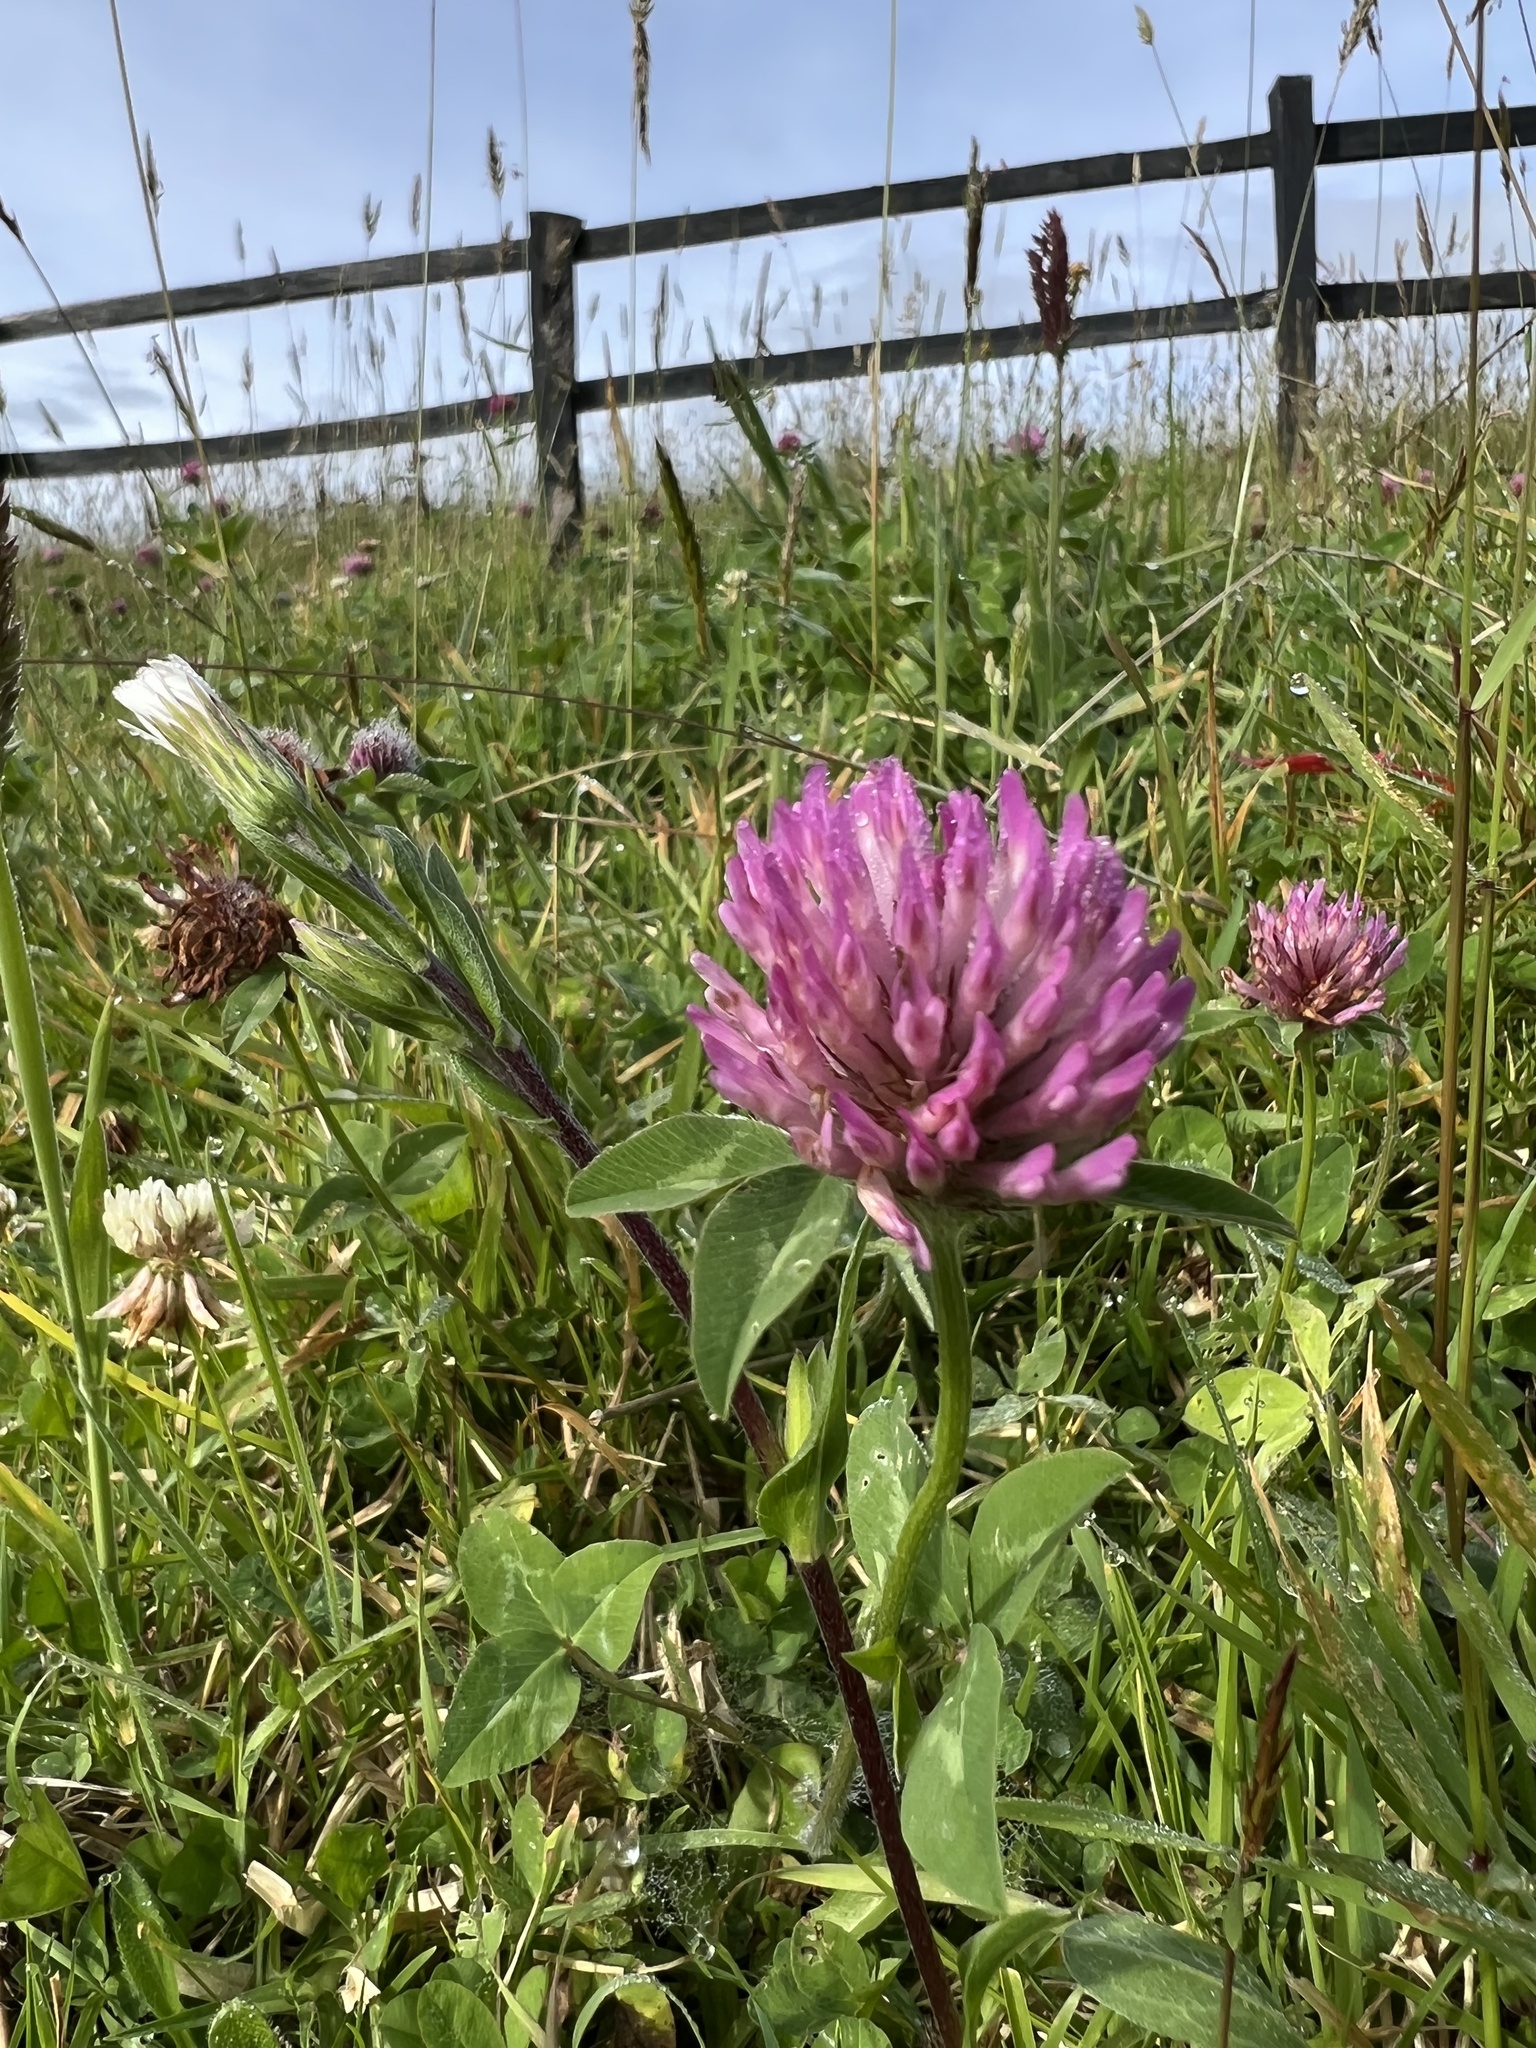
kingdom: Plantae
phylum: Tracheophyta
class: Magnoliopsida
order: Fabales
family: Fabaceae
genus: Trifolium
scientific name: Trifolium pratense
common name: Red clover
